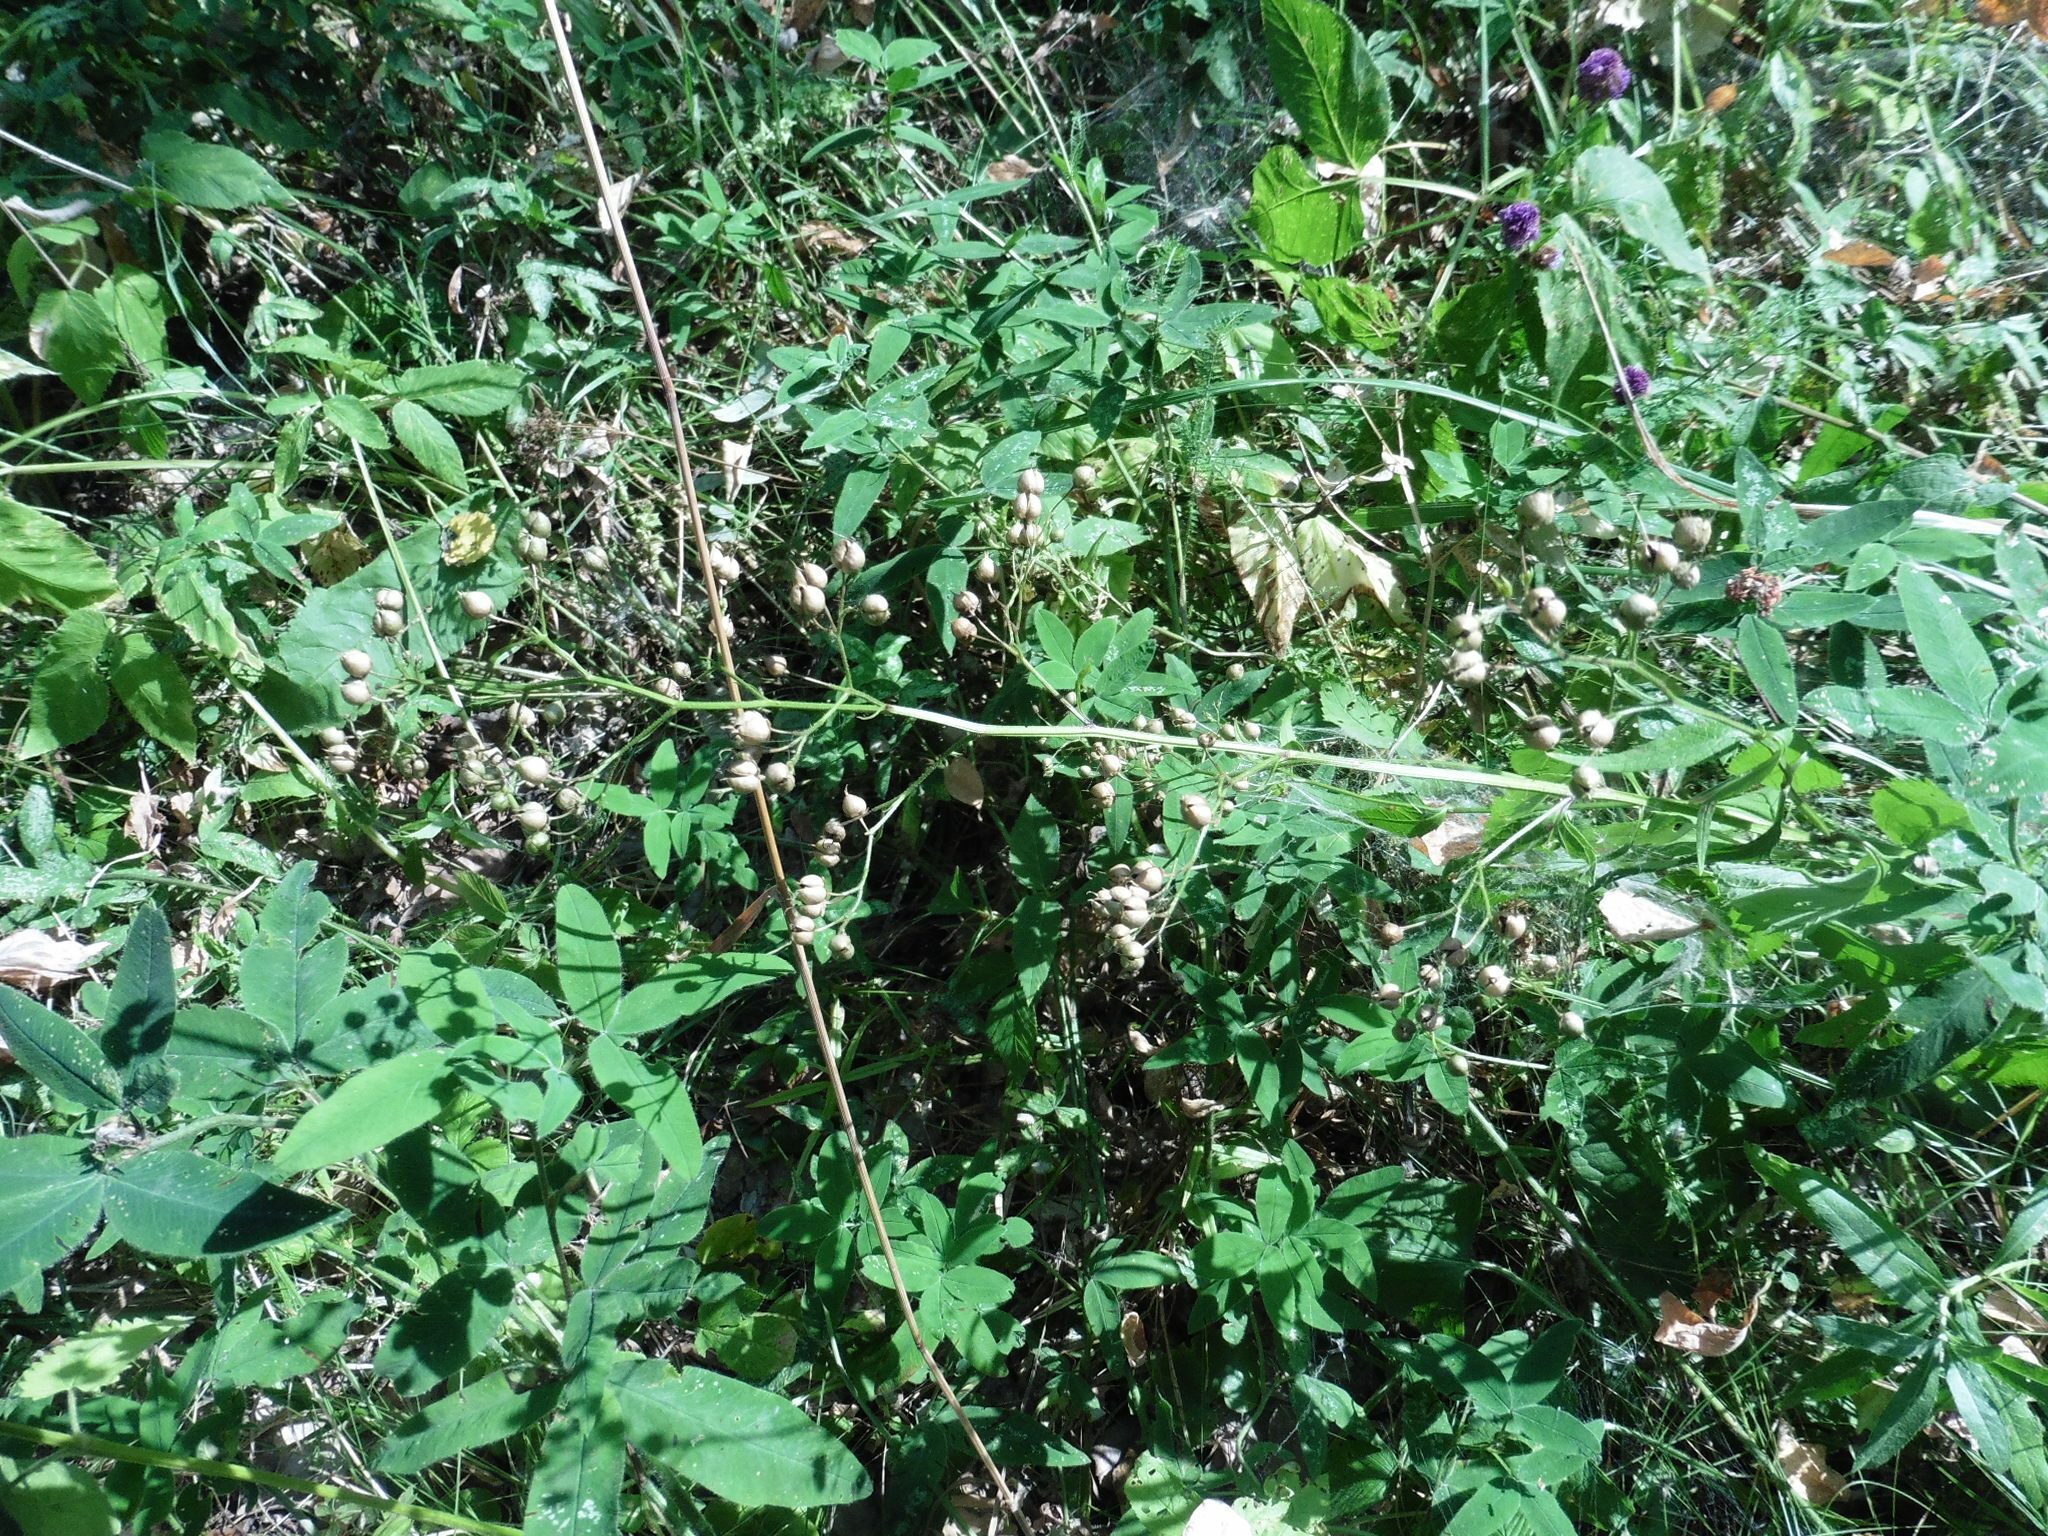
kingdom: Plantae
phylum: Tracheophyta
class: Magnoliopsida
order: Lamiales
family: Scrophulariaceae
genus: Scrophularia
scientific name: Scrophularia nodosa
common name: Common figwort
